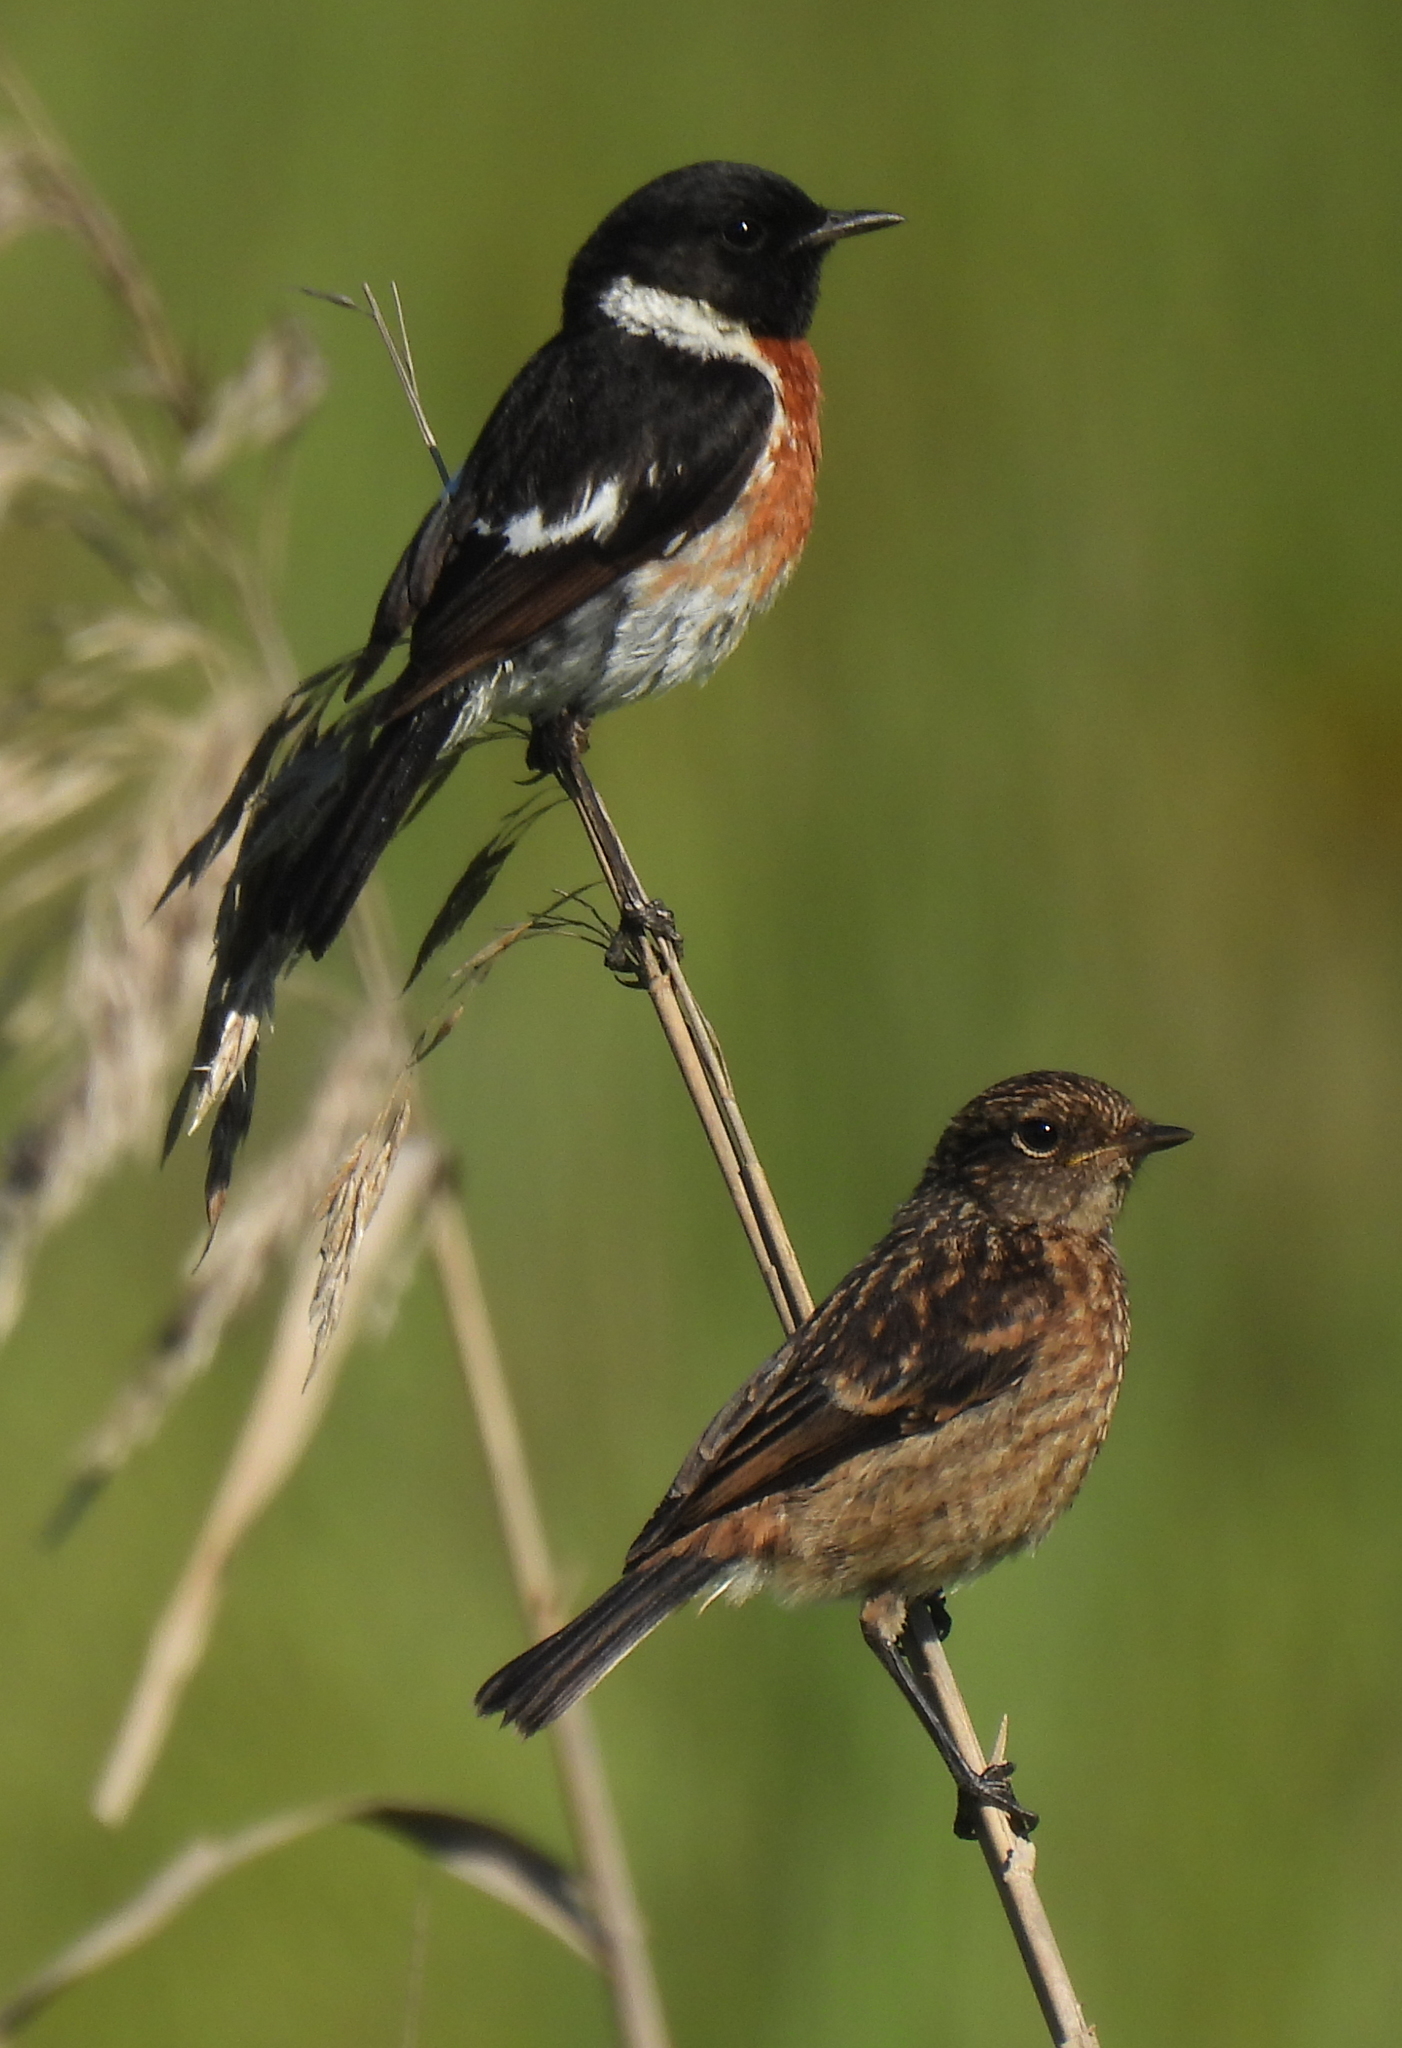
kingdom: Animalia
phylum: Chordata
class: Aves
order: Passeriformes
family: Muscicapidae
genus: Saxicola
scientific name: Saxicola torquatus
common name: African stonechat
